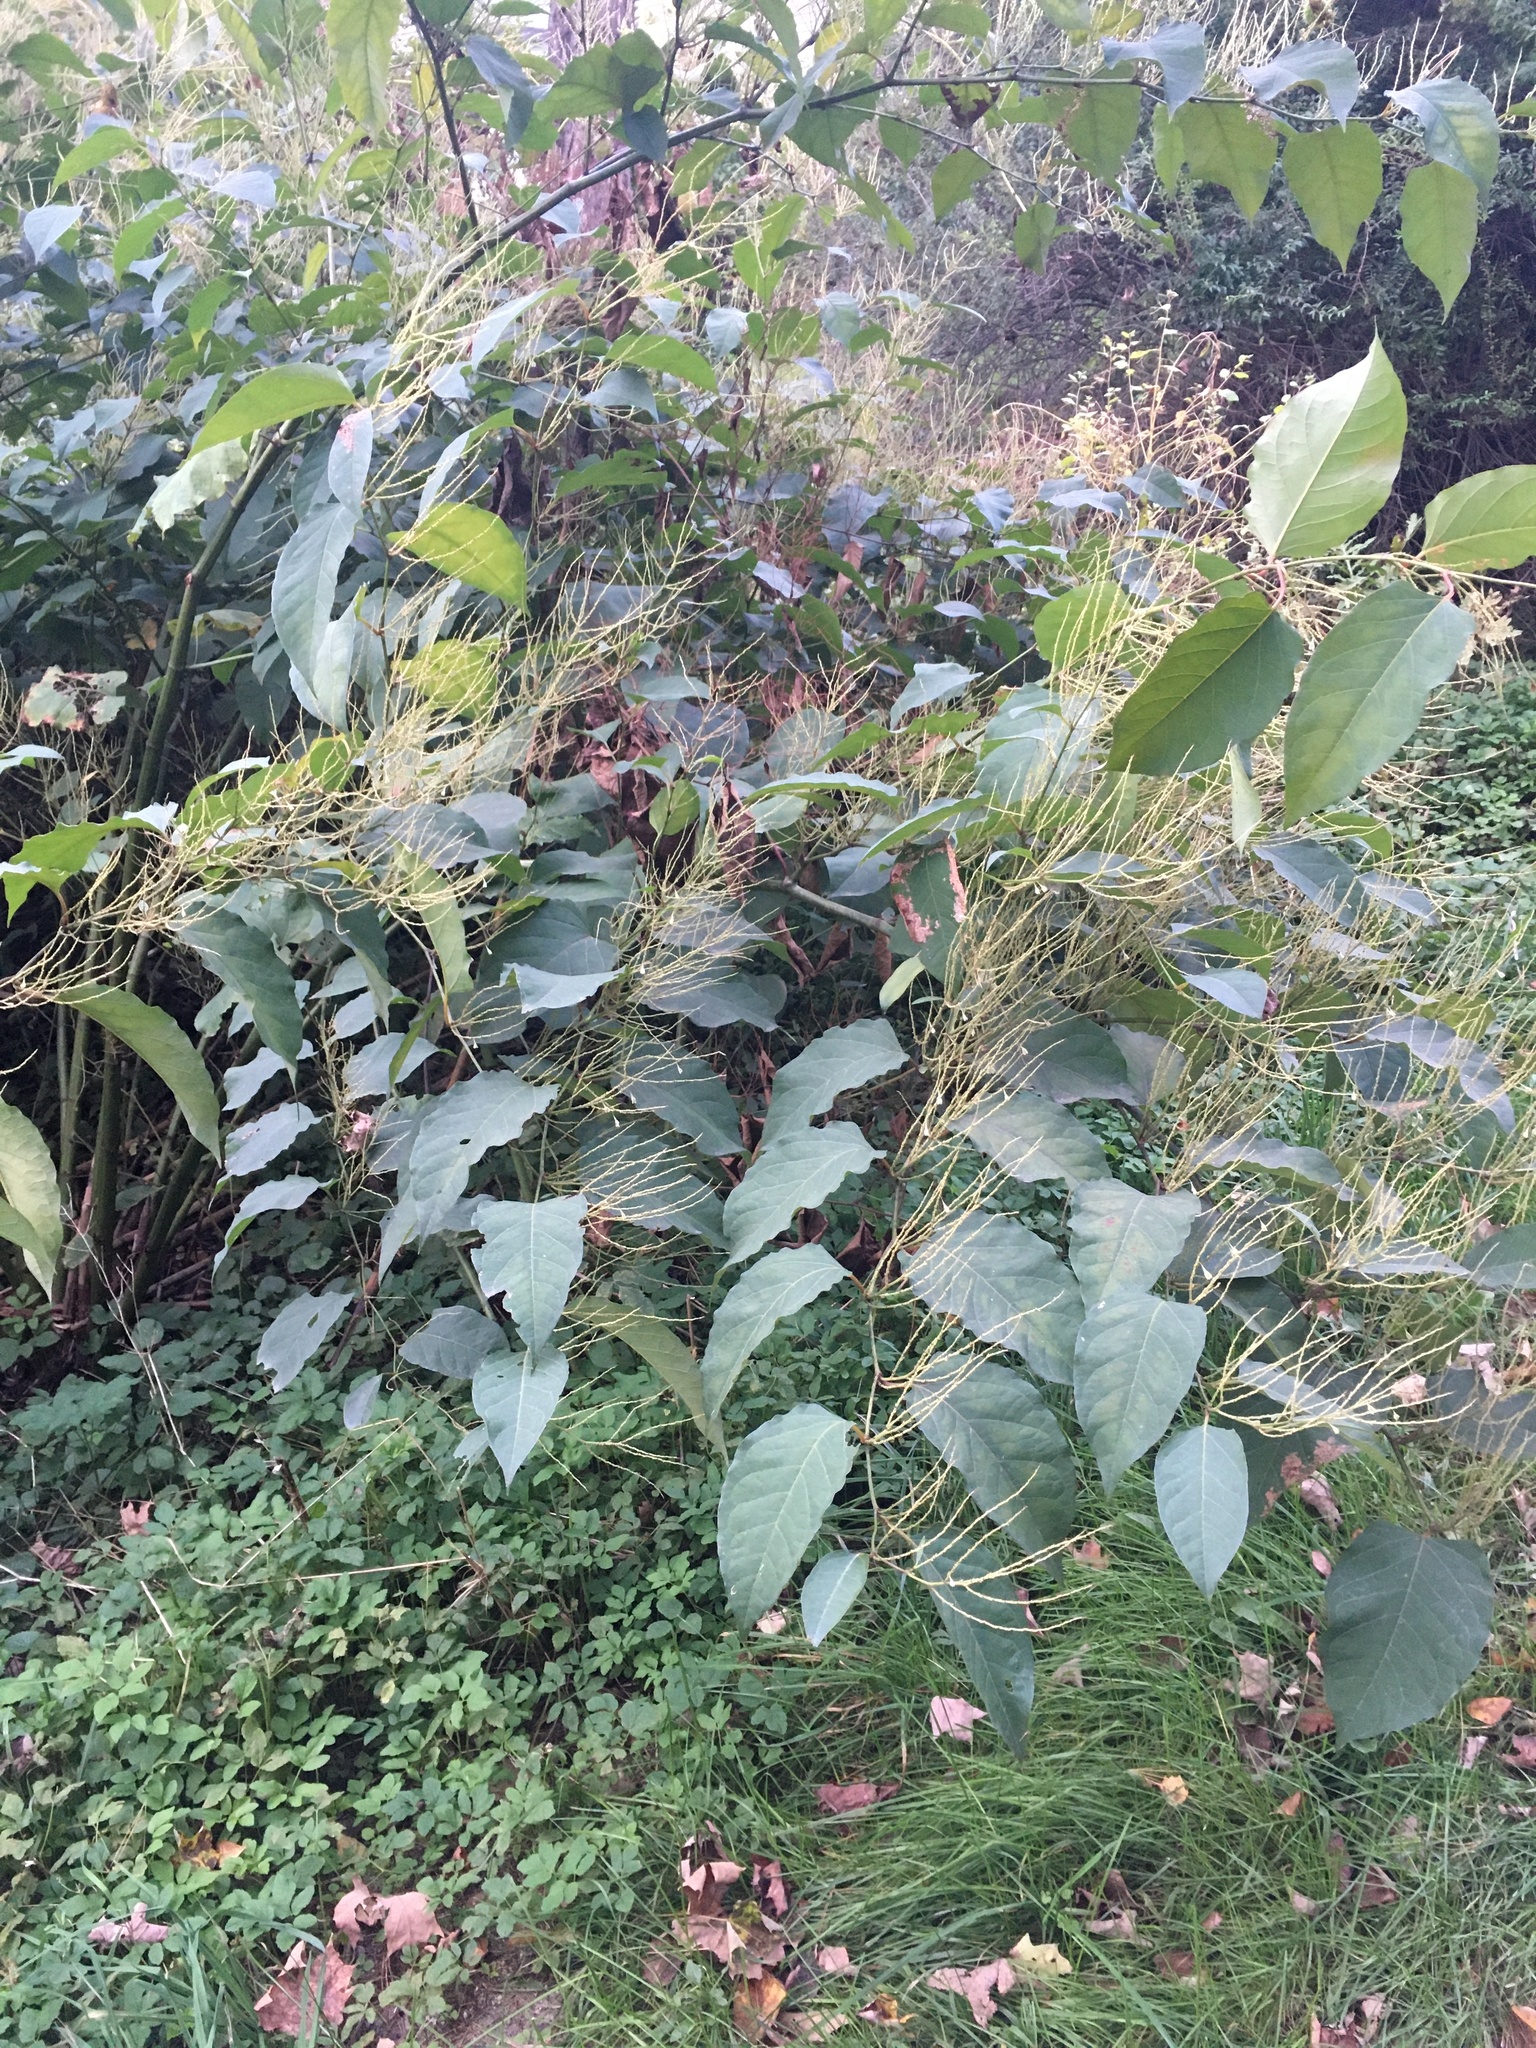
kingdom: Plantae
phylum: Tracheophyta
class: Magnoliopsida
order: Caryophyllales
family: Polygonaceae
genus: Reynoutria
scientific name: Reynoutria japonica
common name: Japanese knotweed
